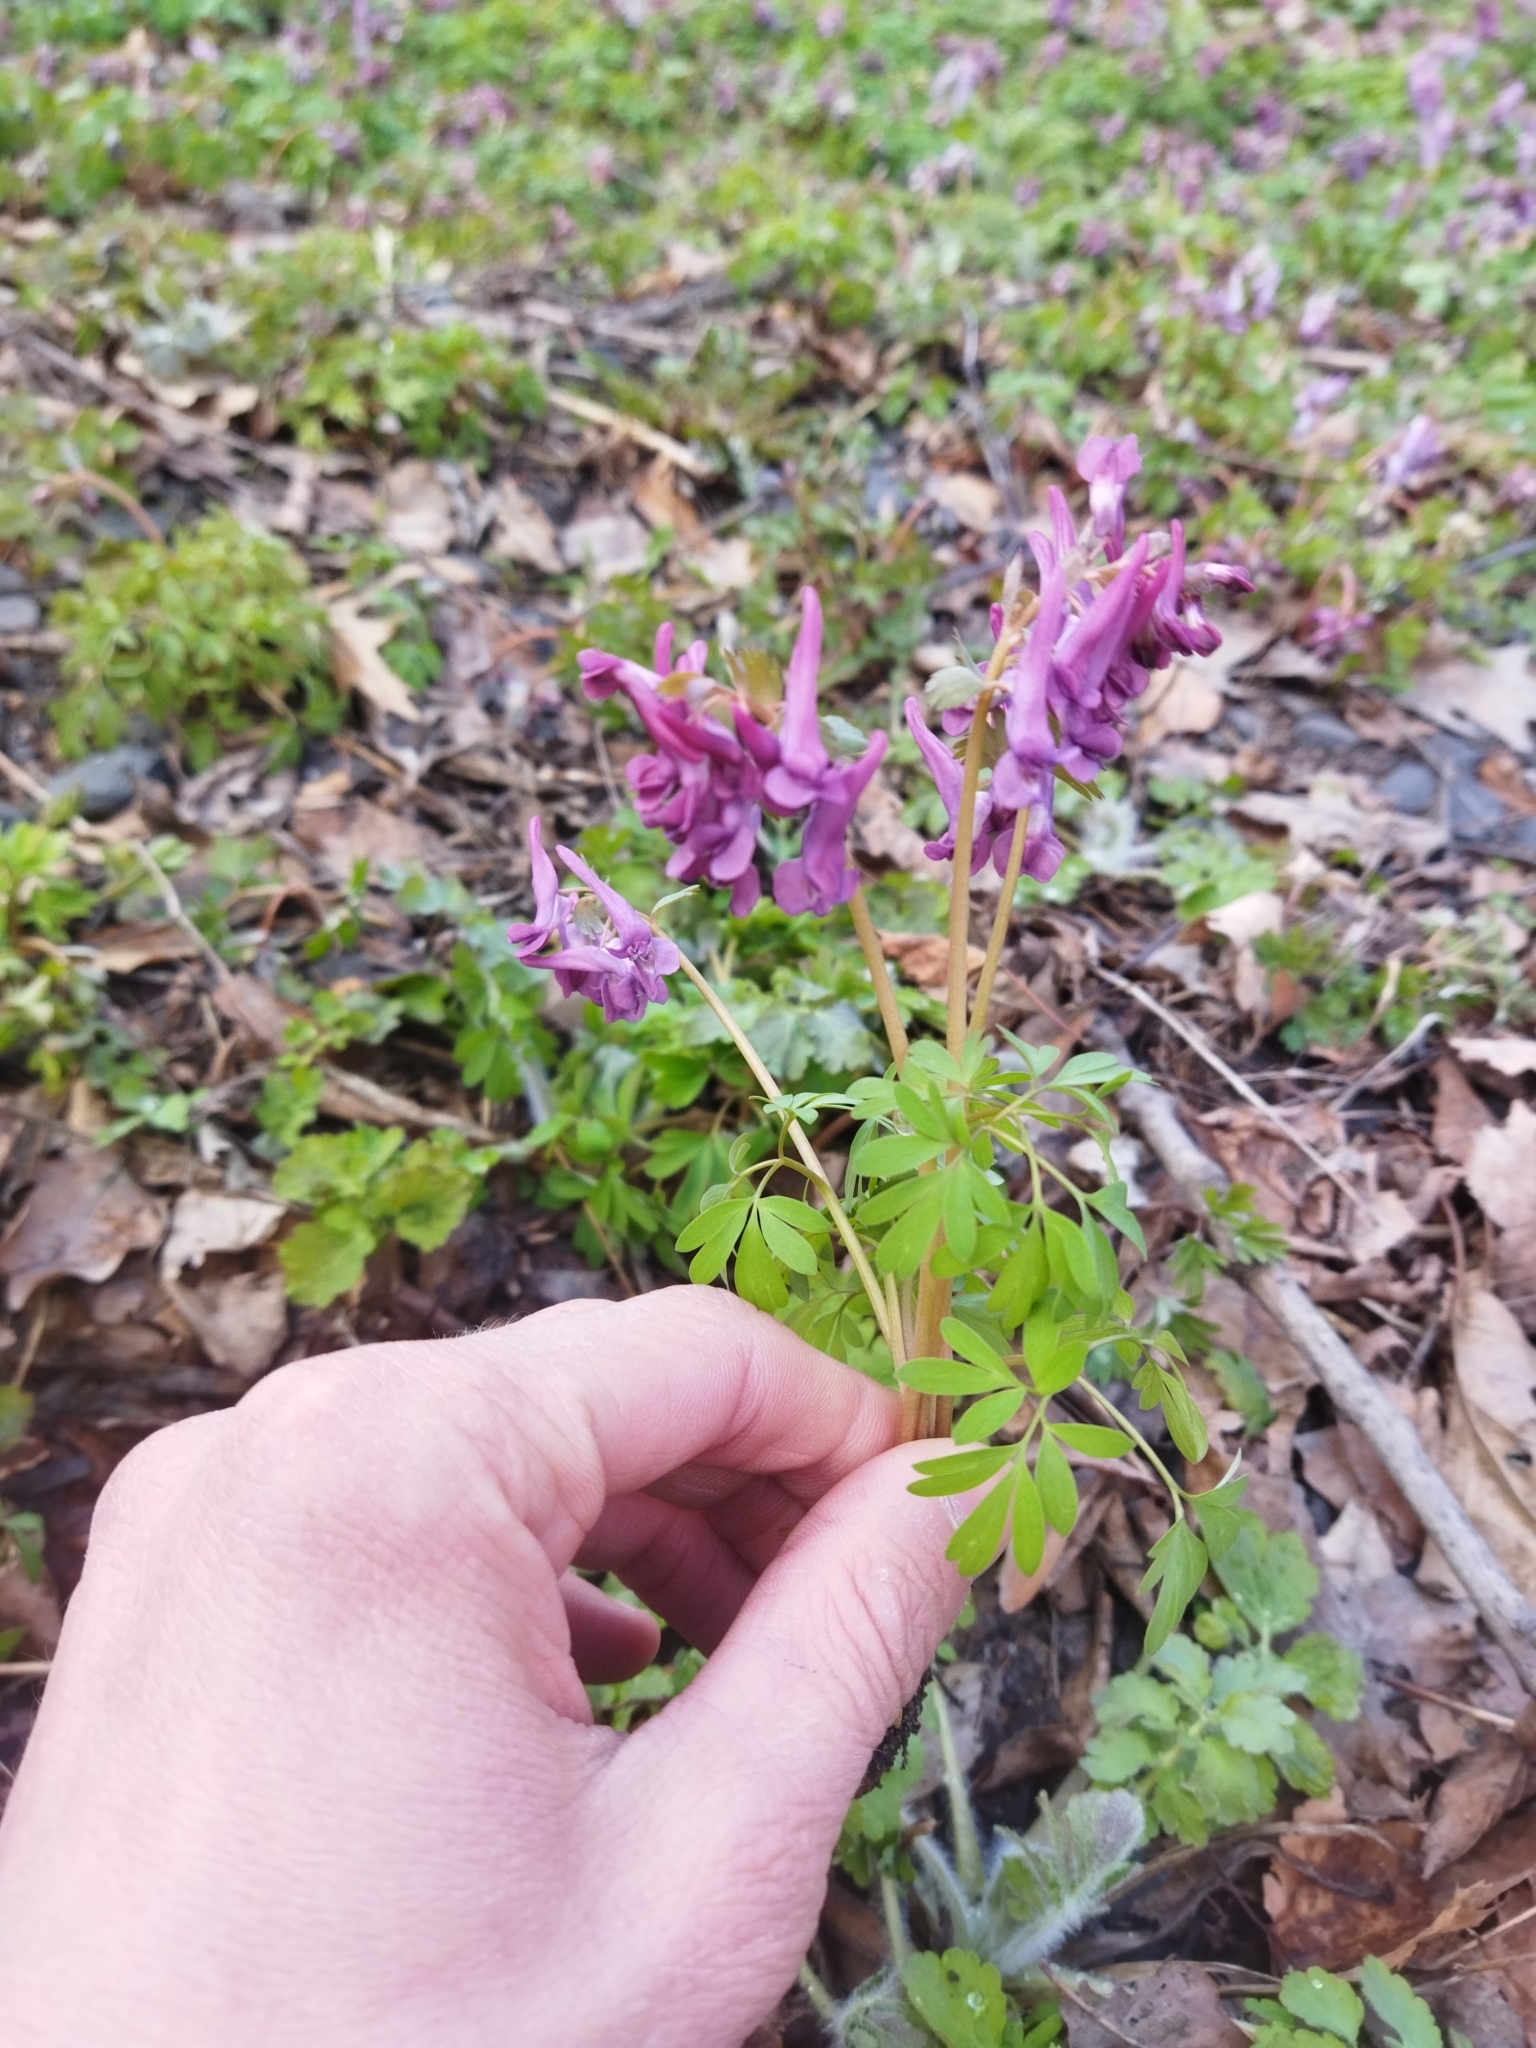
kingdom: Plantae
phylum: Tracheophyta
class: Magnoliopsida
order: Ranunculales
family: Papaveraceae
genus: Corydalis
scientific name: Corydalis solida
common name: Bird-in-a-bush
